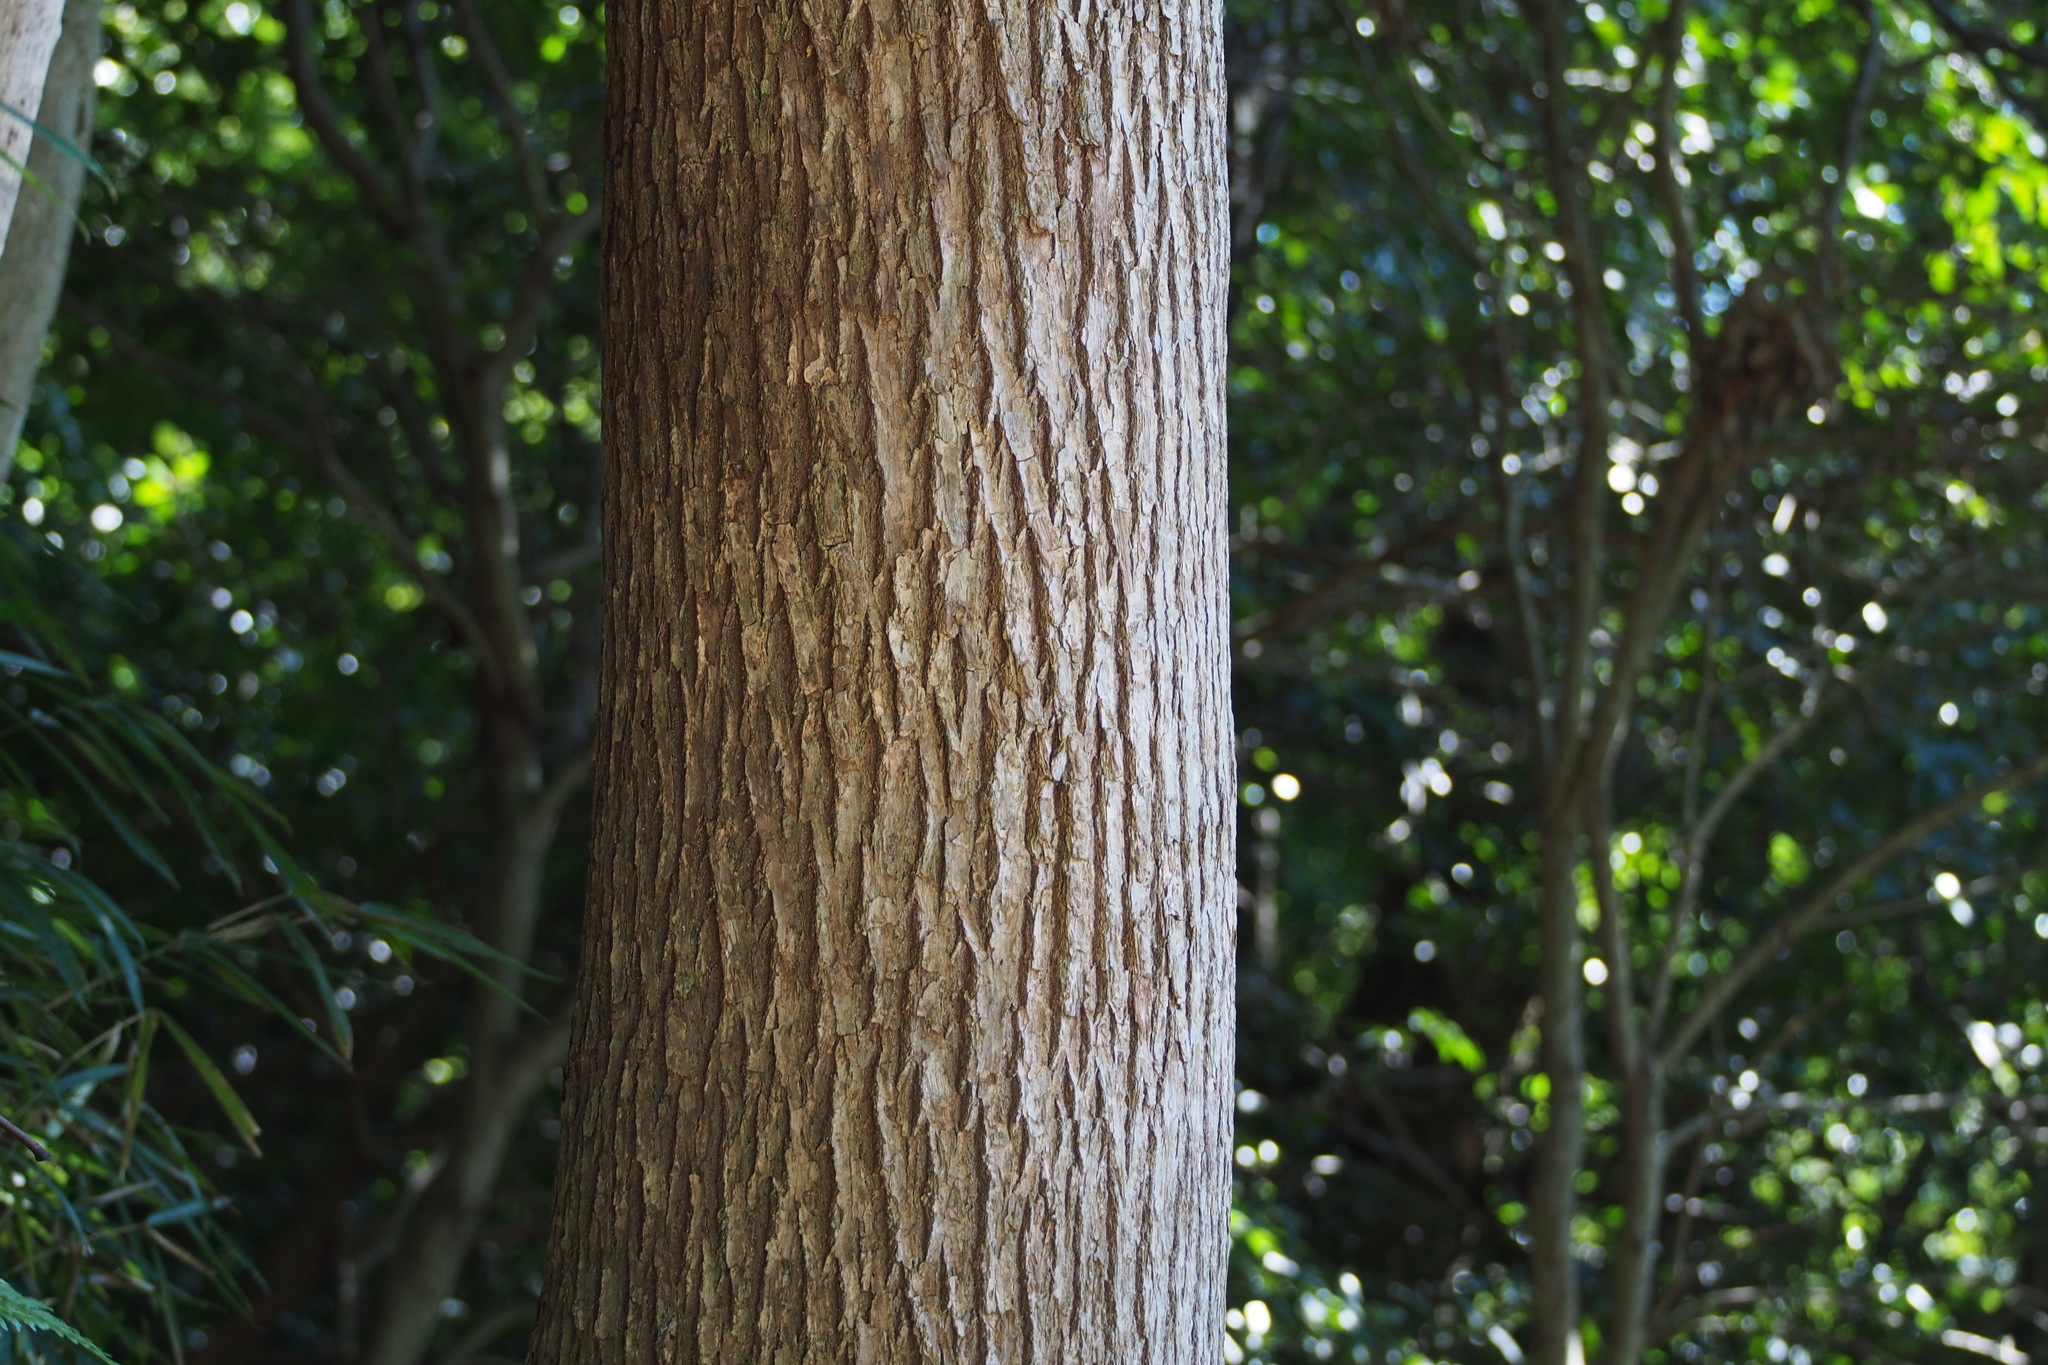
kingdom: Plantae
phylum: Tracheophyta
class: Magnoliopsida
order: Laurales
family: Lauraceae
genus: Cinnamomum
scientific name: Cinnamomum camphora
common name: Camphortree
